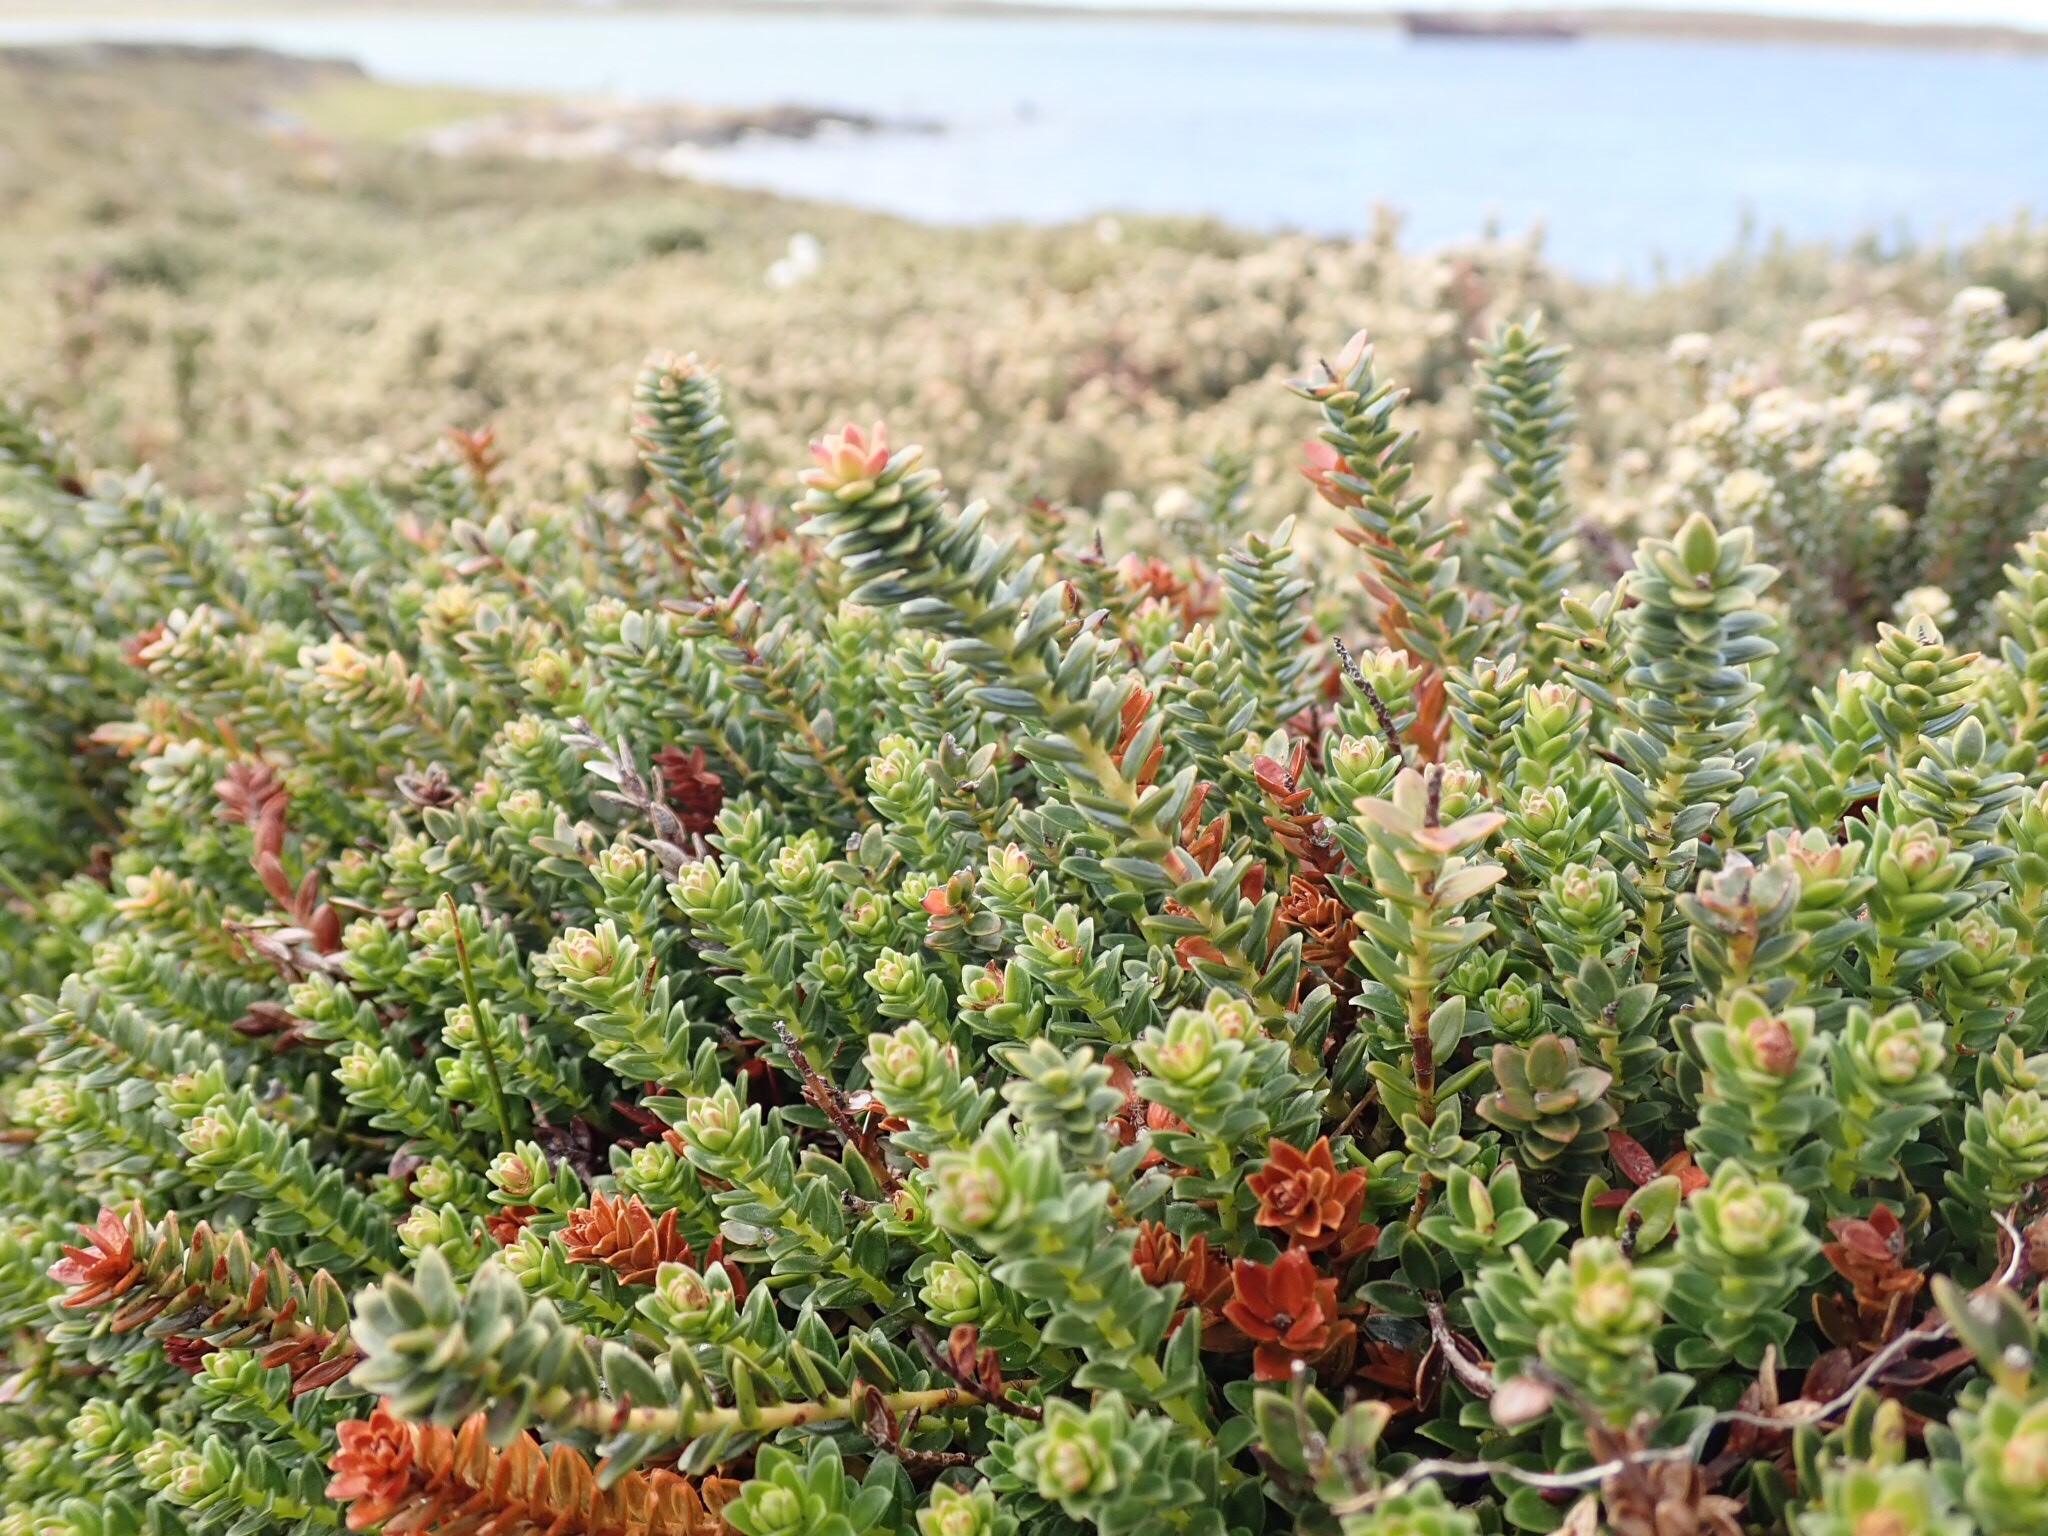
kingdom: Plantae
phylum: Tracheophyta
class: Magnoliopsida
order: Ericales
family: Ericaceae
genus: Gaultheria
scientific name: Gaultheria pumila
